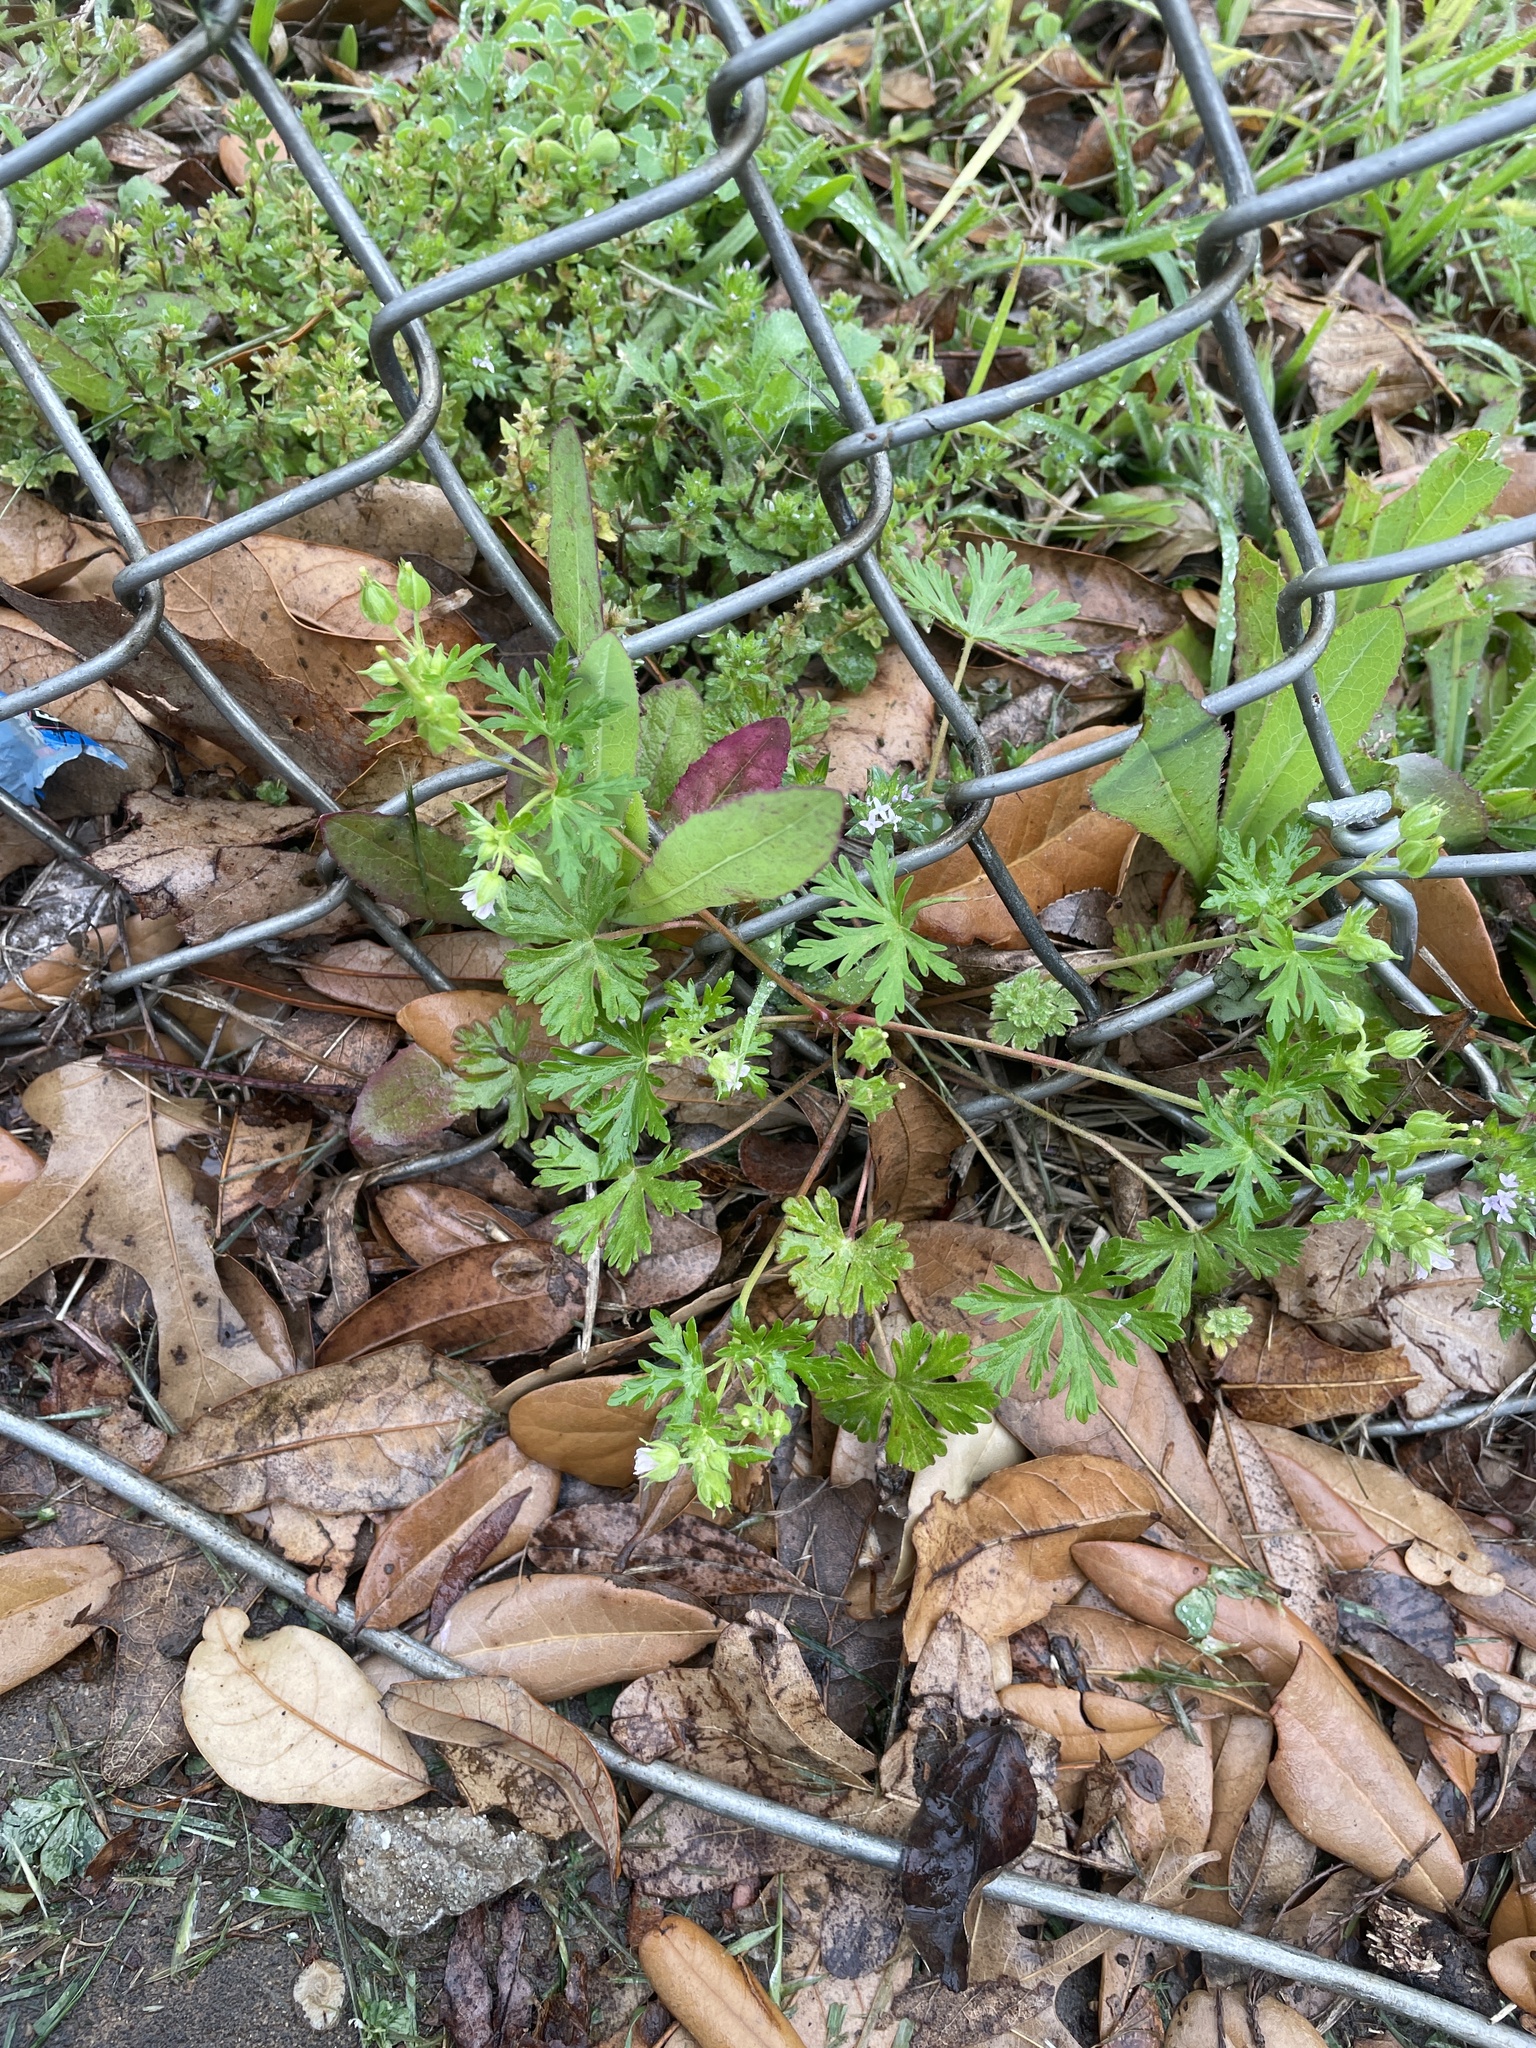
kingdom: Plantae
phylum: Tracheophyta
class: Magnoliopsida
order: Geraniales
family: Geraniaceae
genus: Geranium
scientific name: Geranium carolinianum
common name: Carolina crane's-bill
